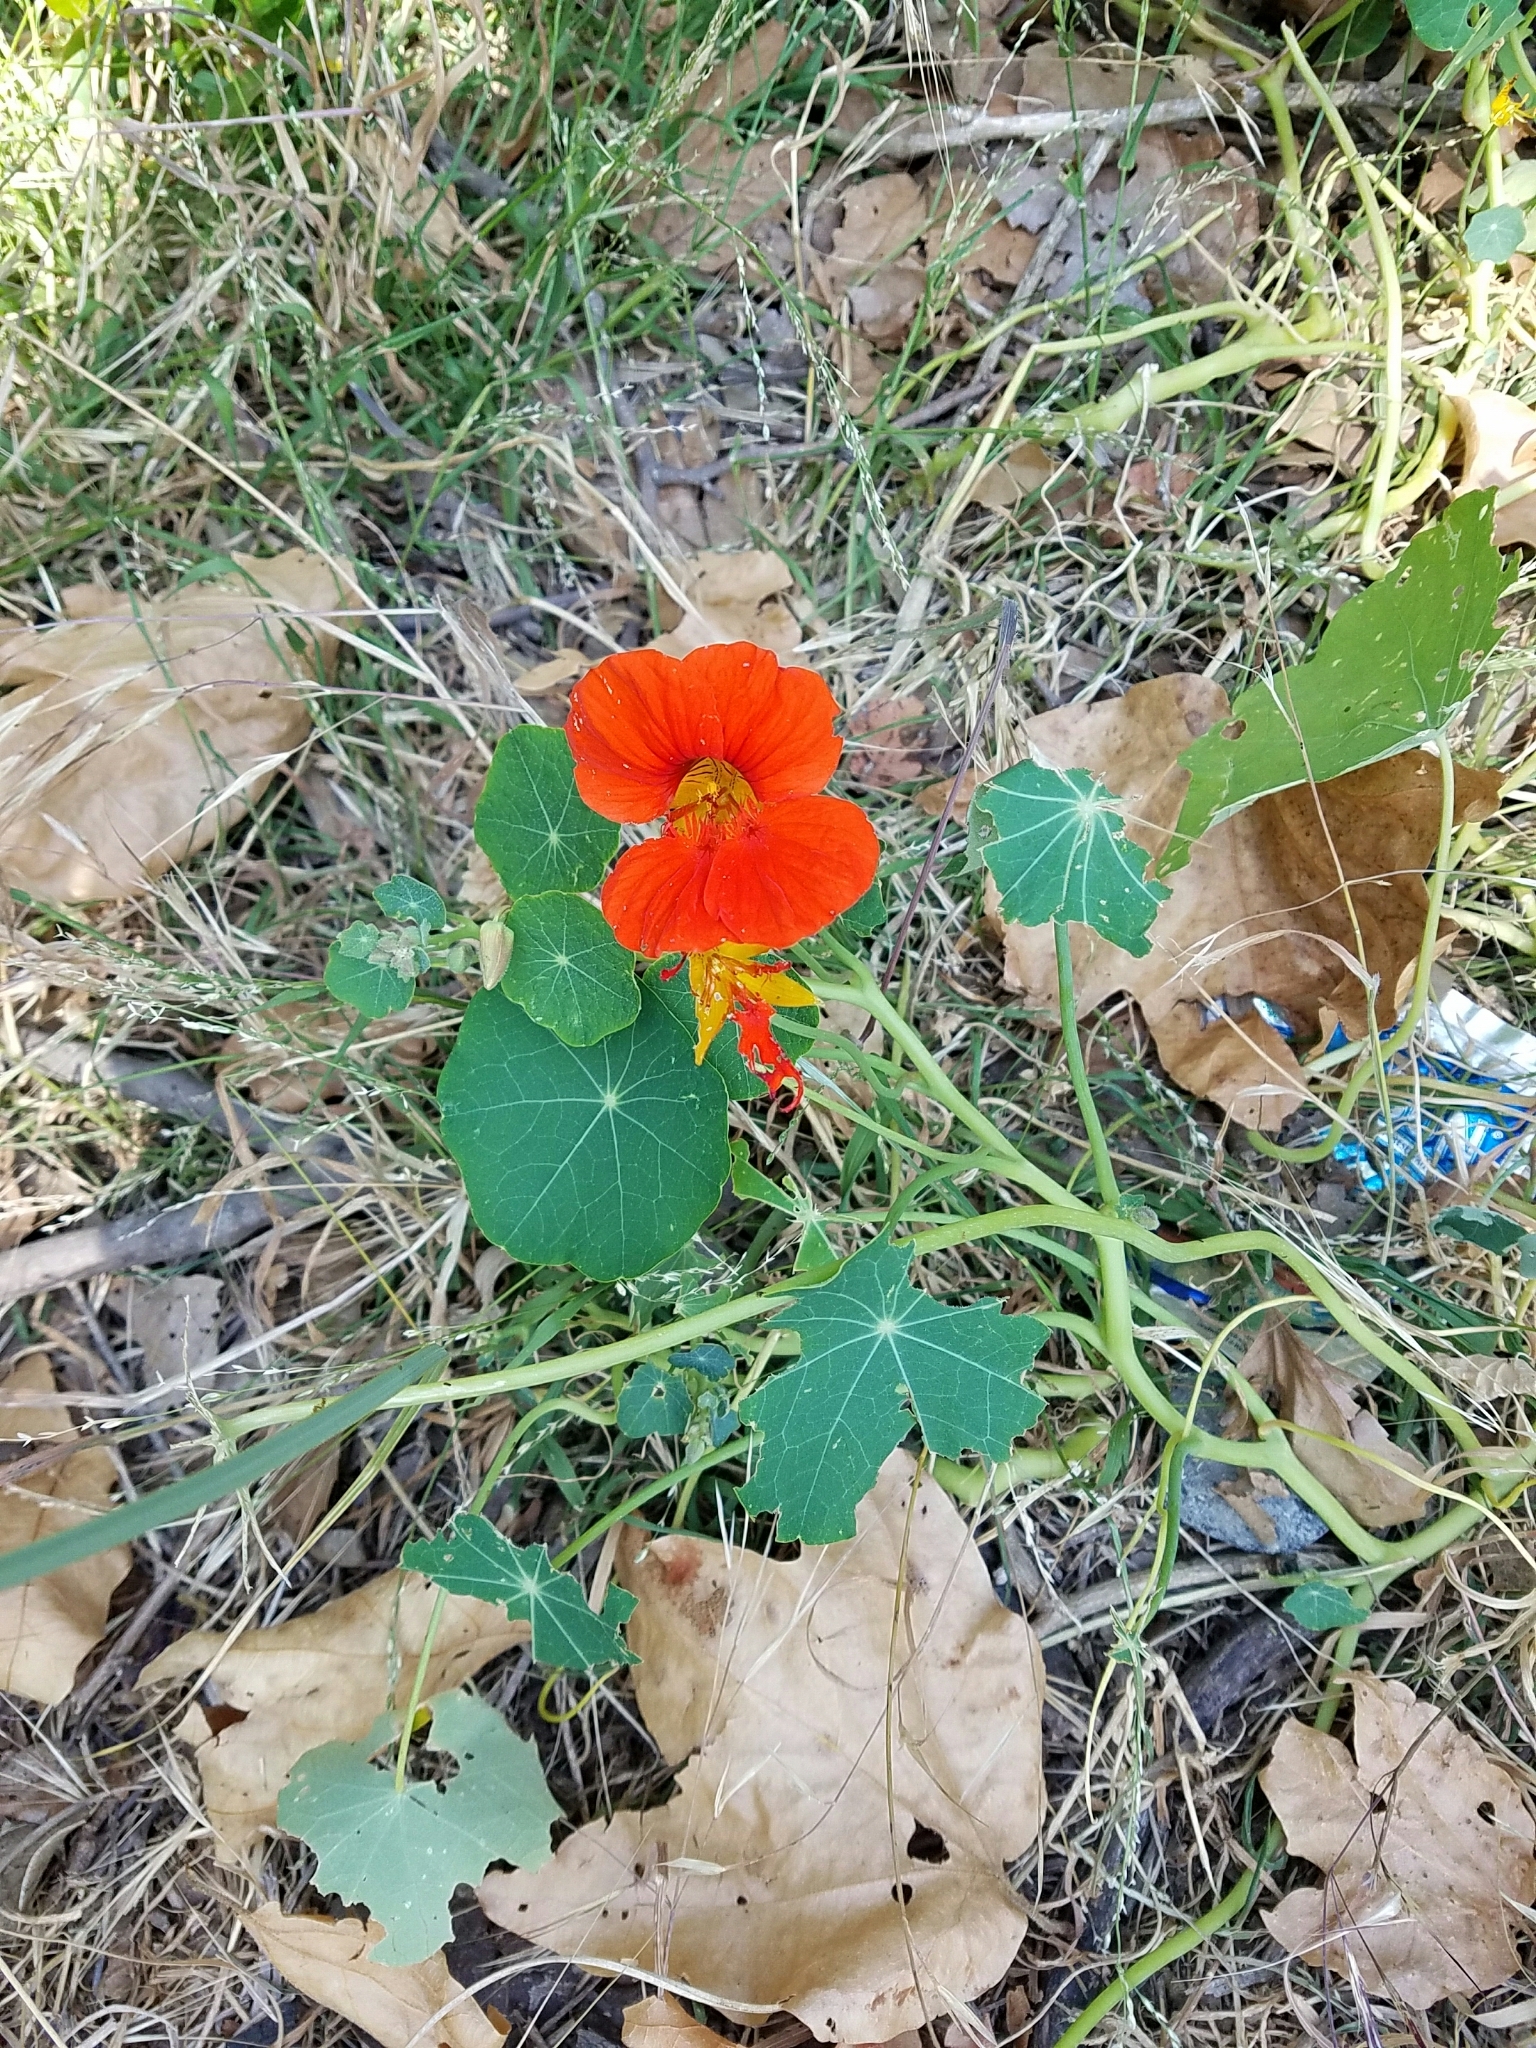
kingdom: Plantae
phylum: Tracheophyta
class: Magnoliopsida
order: Brassicales
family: Tropaeolaceae
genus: Tropaeolum
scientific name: Tropaeolum majus
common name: Nasturtium
